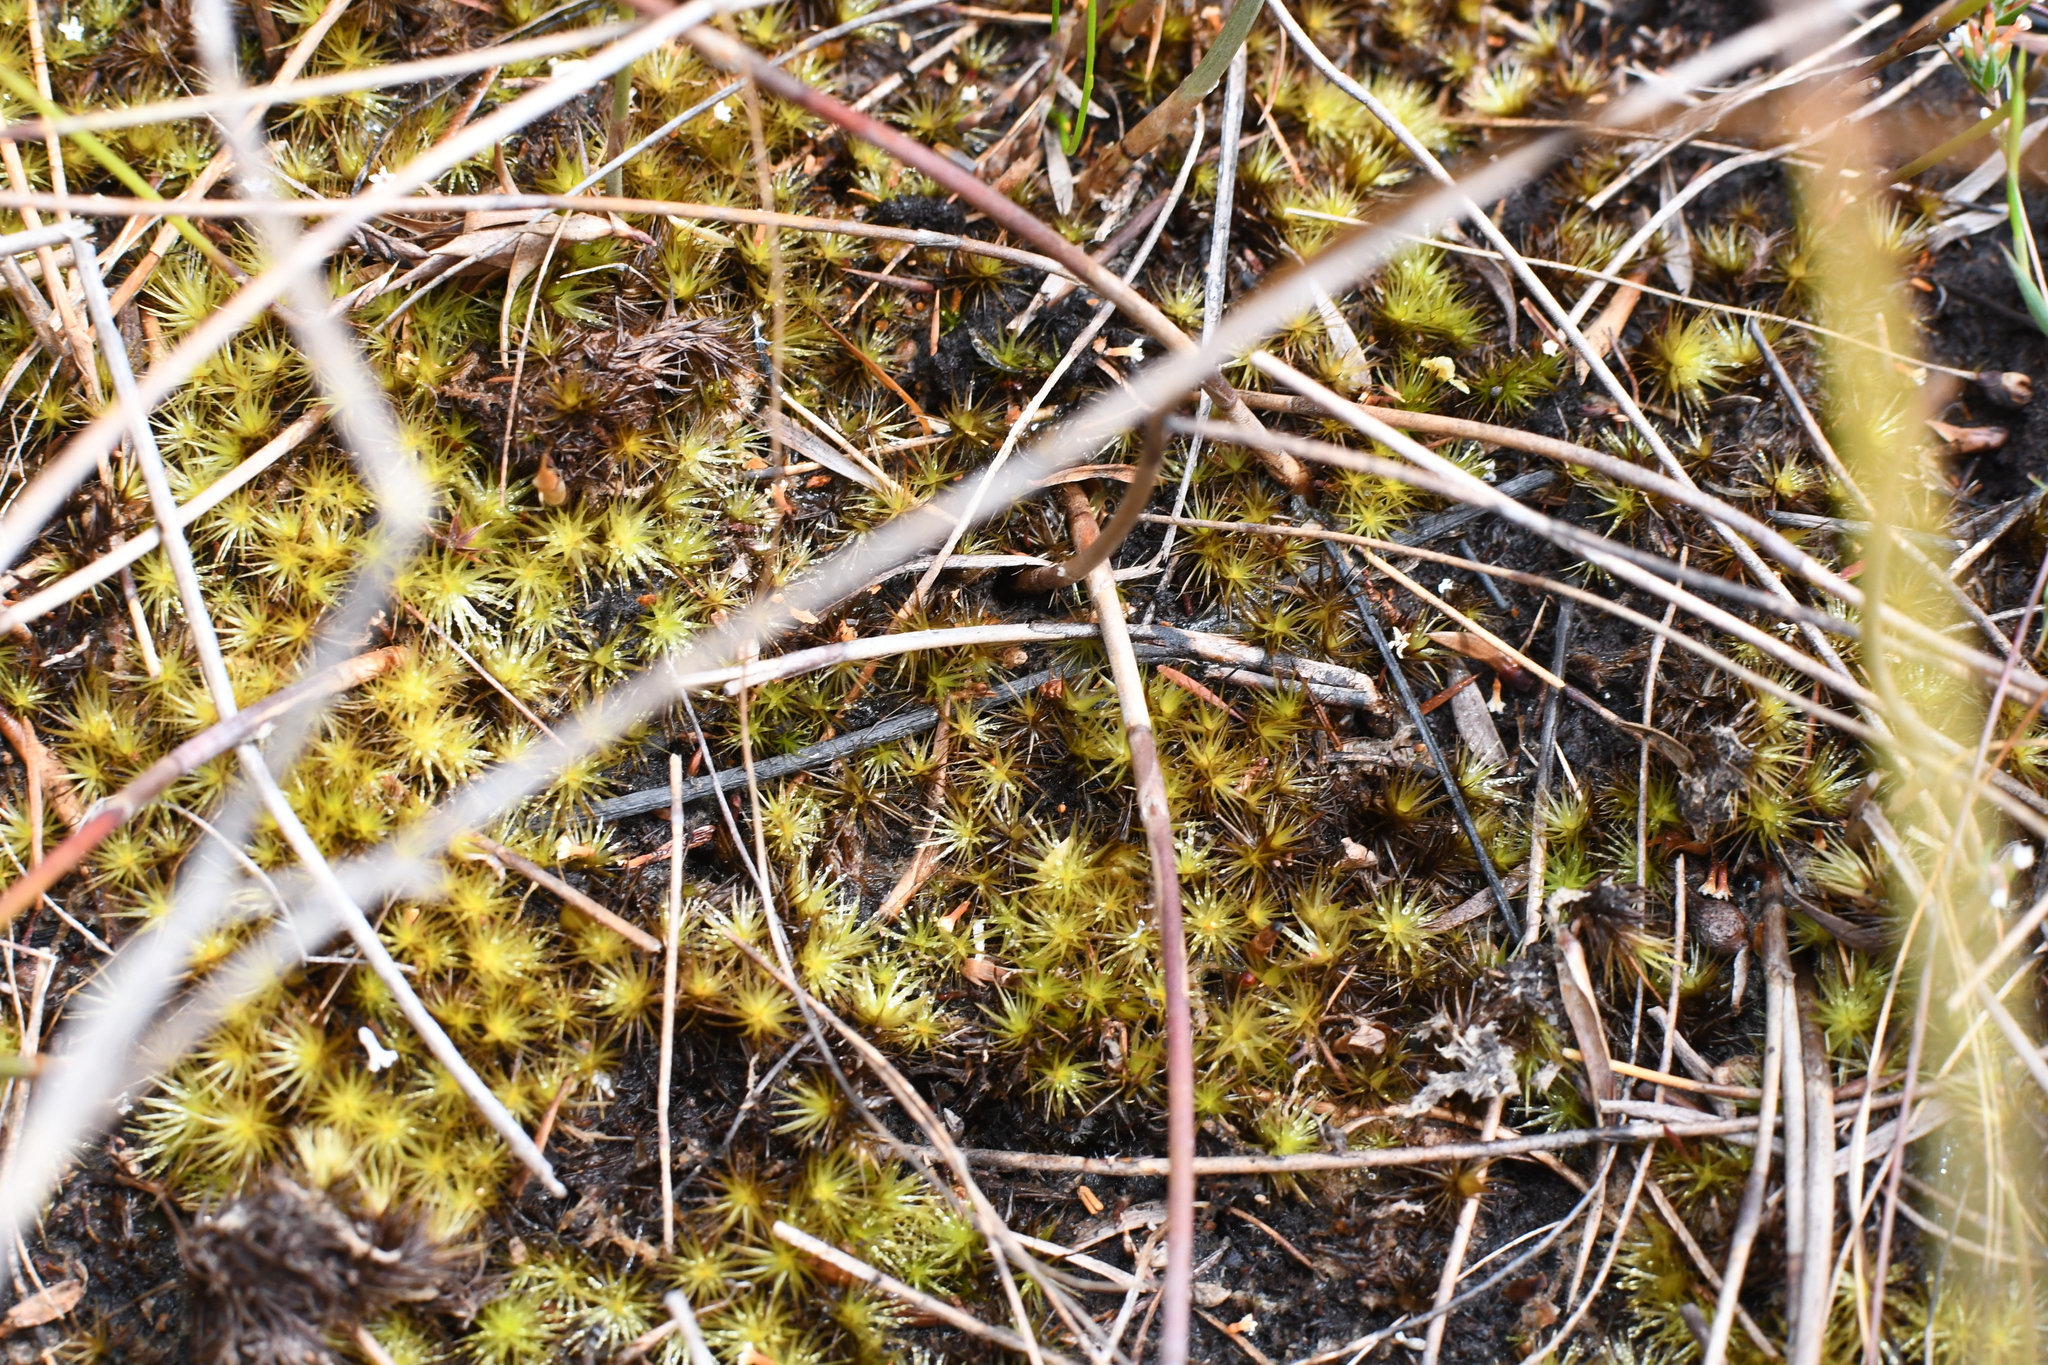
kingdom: Plantae
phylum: Bryophyta
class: Bryopsida
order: Dicranales
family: Leucobryaceae
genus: Campylopus
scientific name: Campylopus acuminatus
